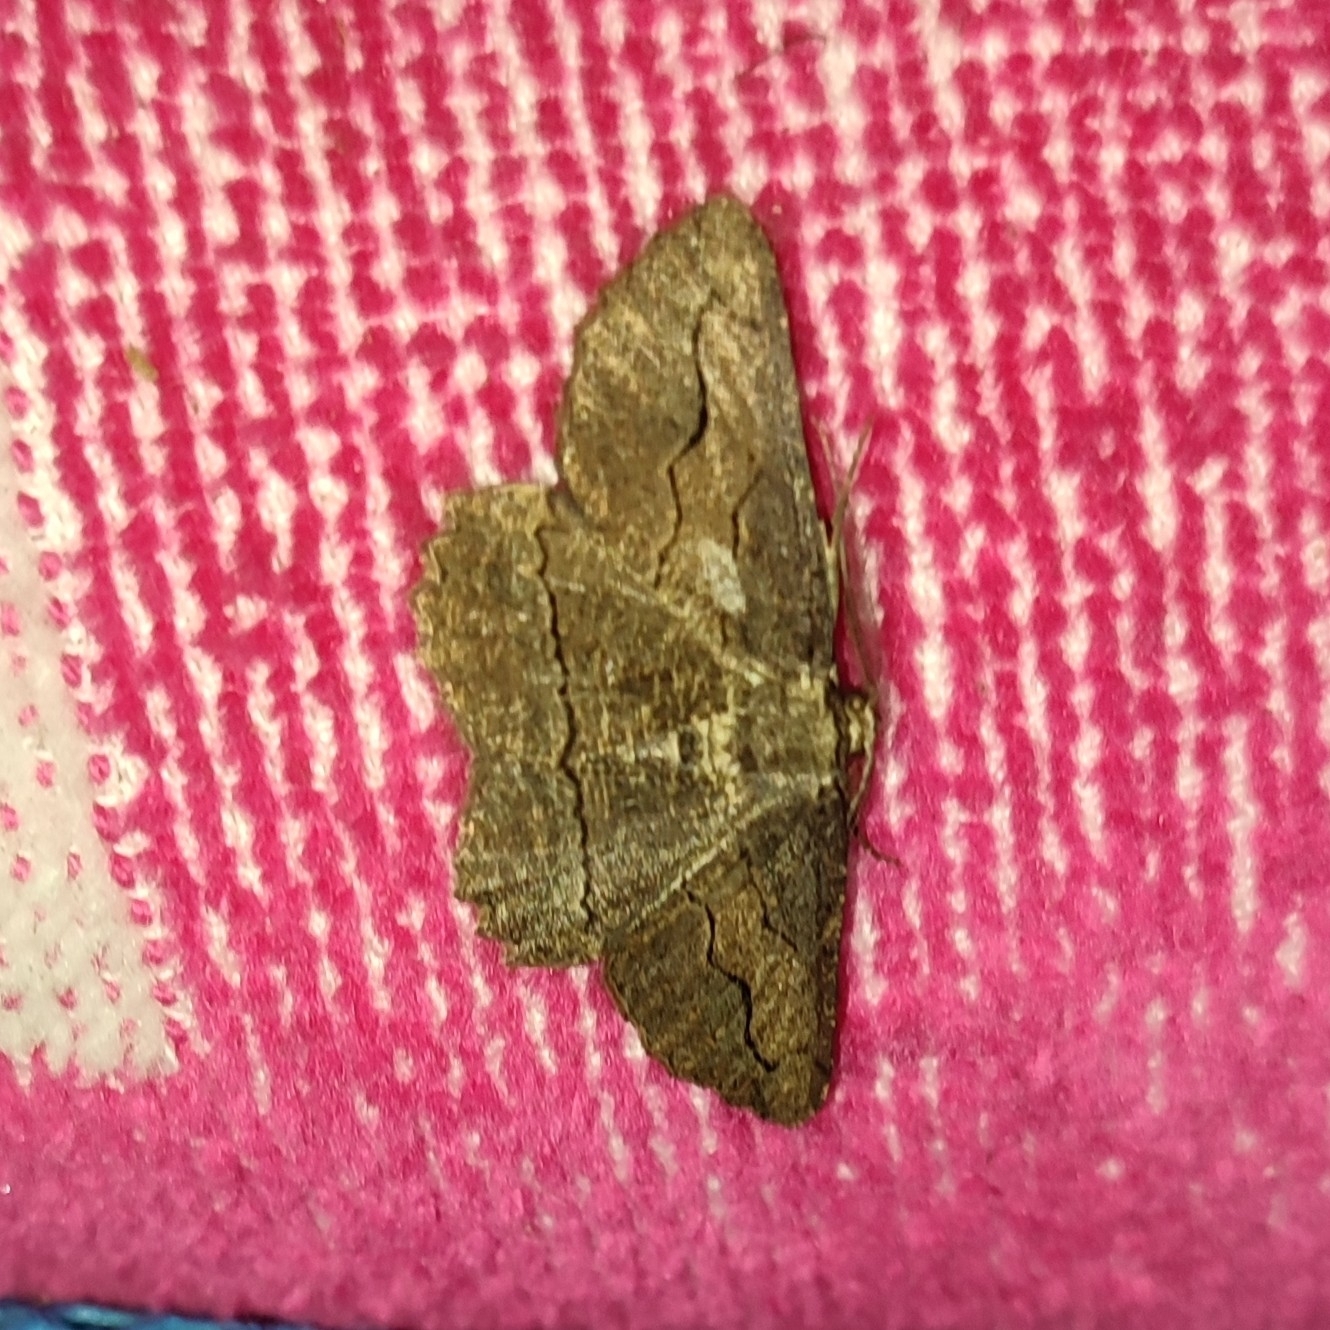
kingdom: Animalia
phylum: Arthropoda
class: Insecta
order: Lepidoptera
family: Geometridae
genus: Menophra
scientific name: Menophra japygiaria
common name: Brassy waved umber
